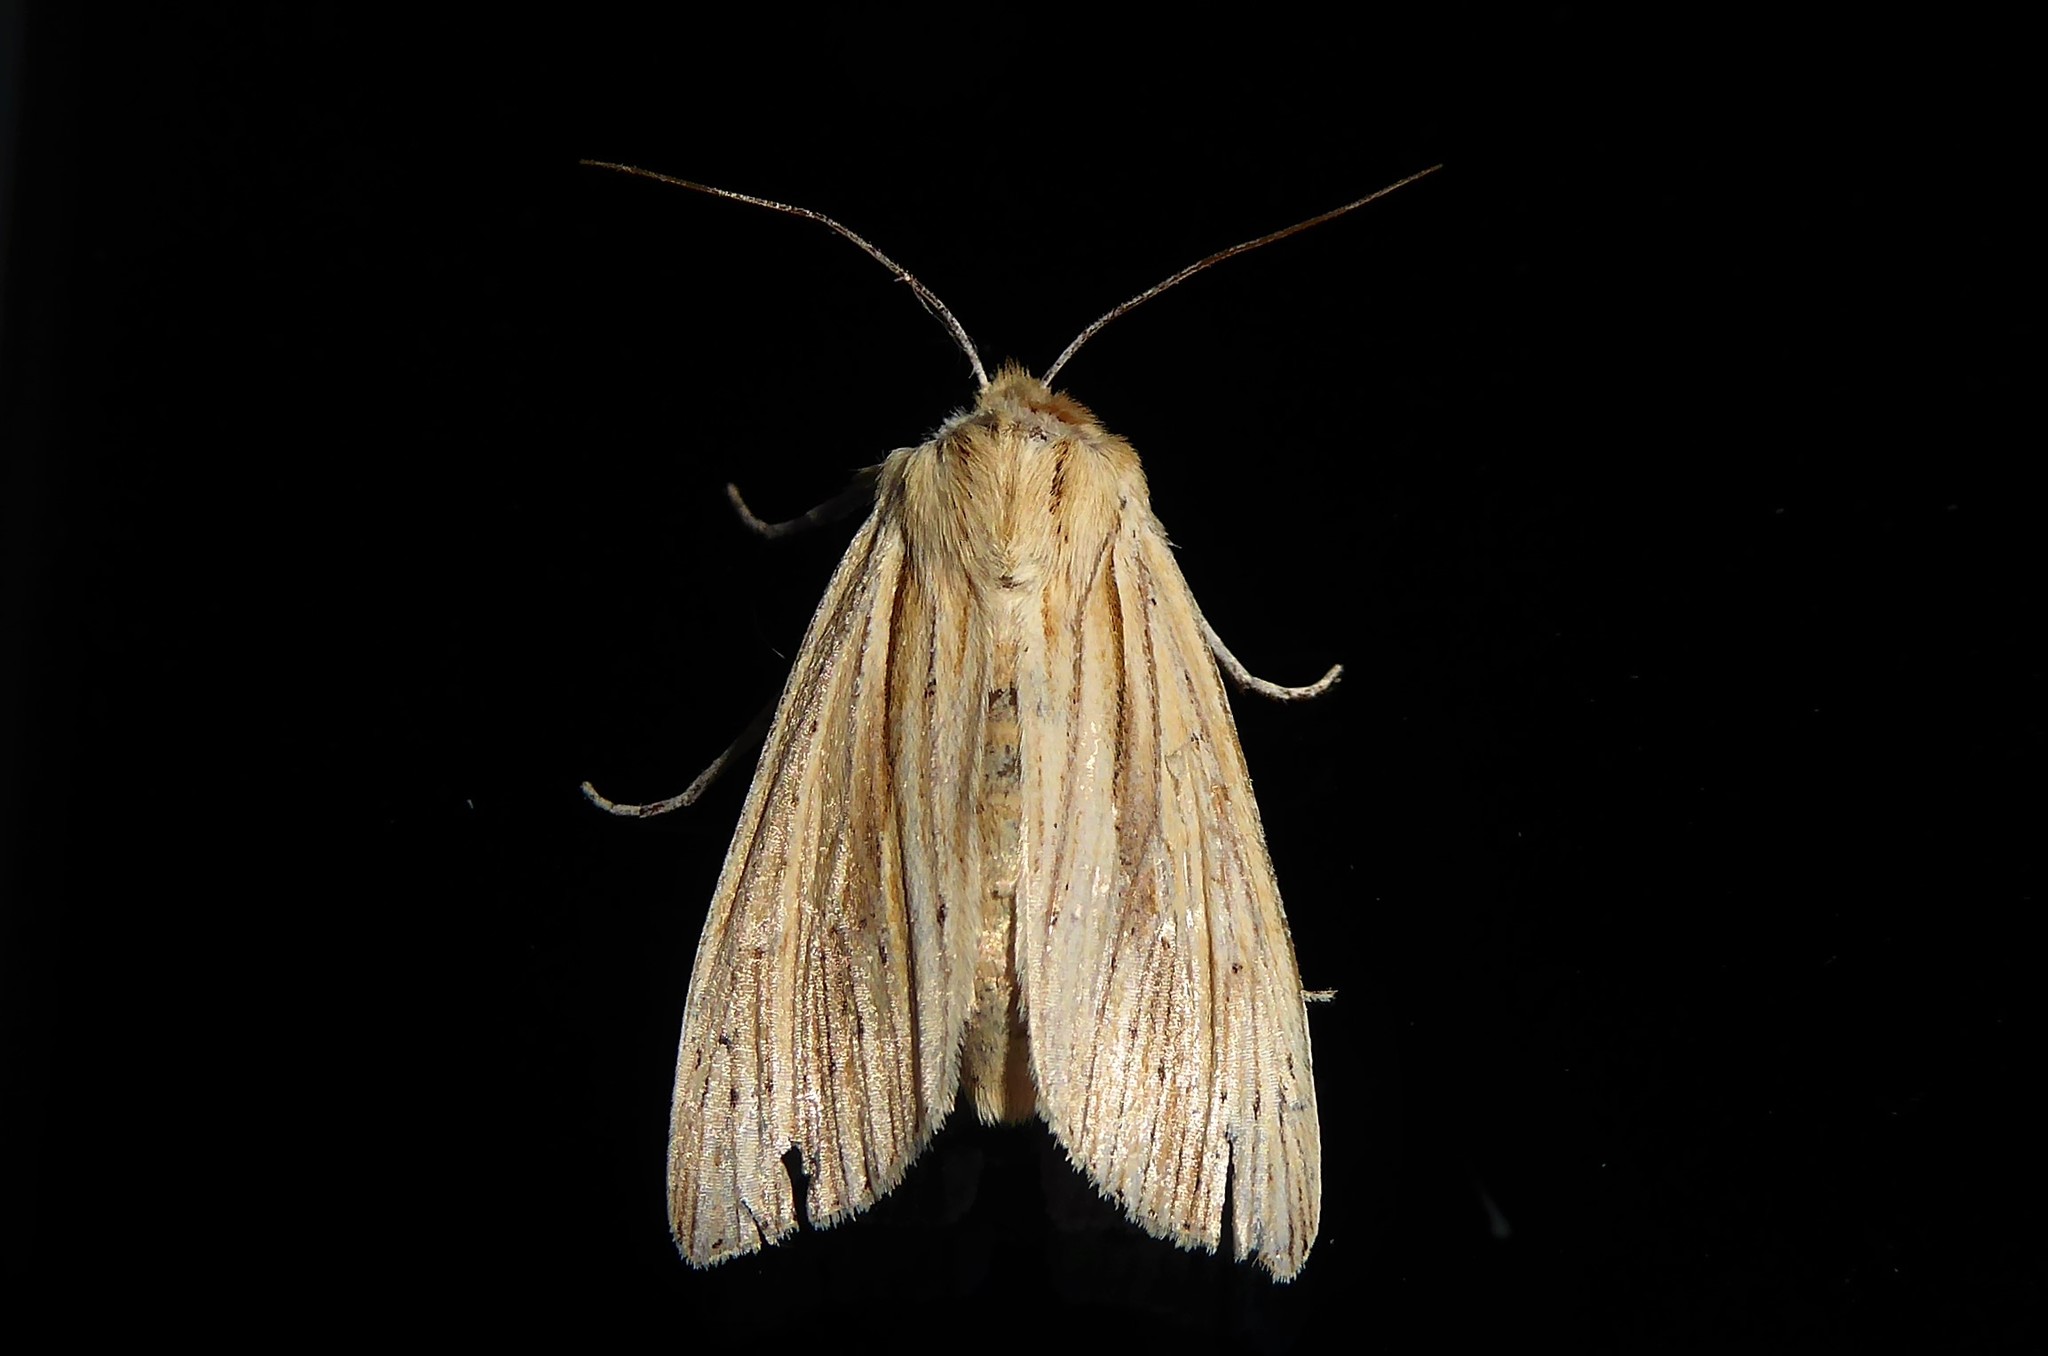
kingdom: Animalia
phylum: Arthropoda
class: Insecta
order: Lepidoptera
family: Noctuidae
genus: Ichneutica
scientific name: Ichneutica semivittata
